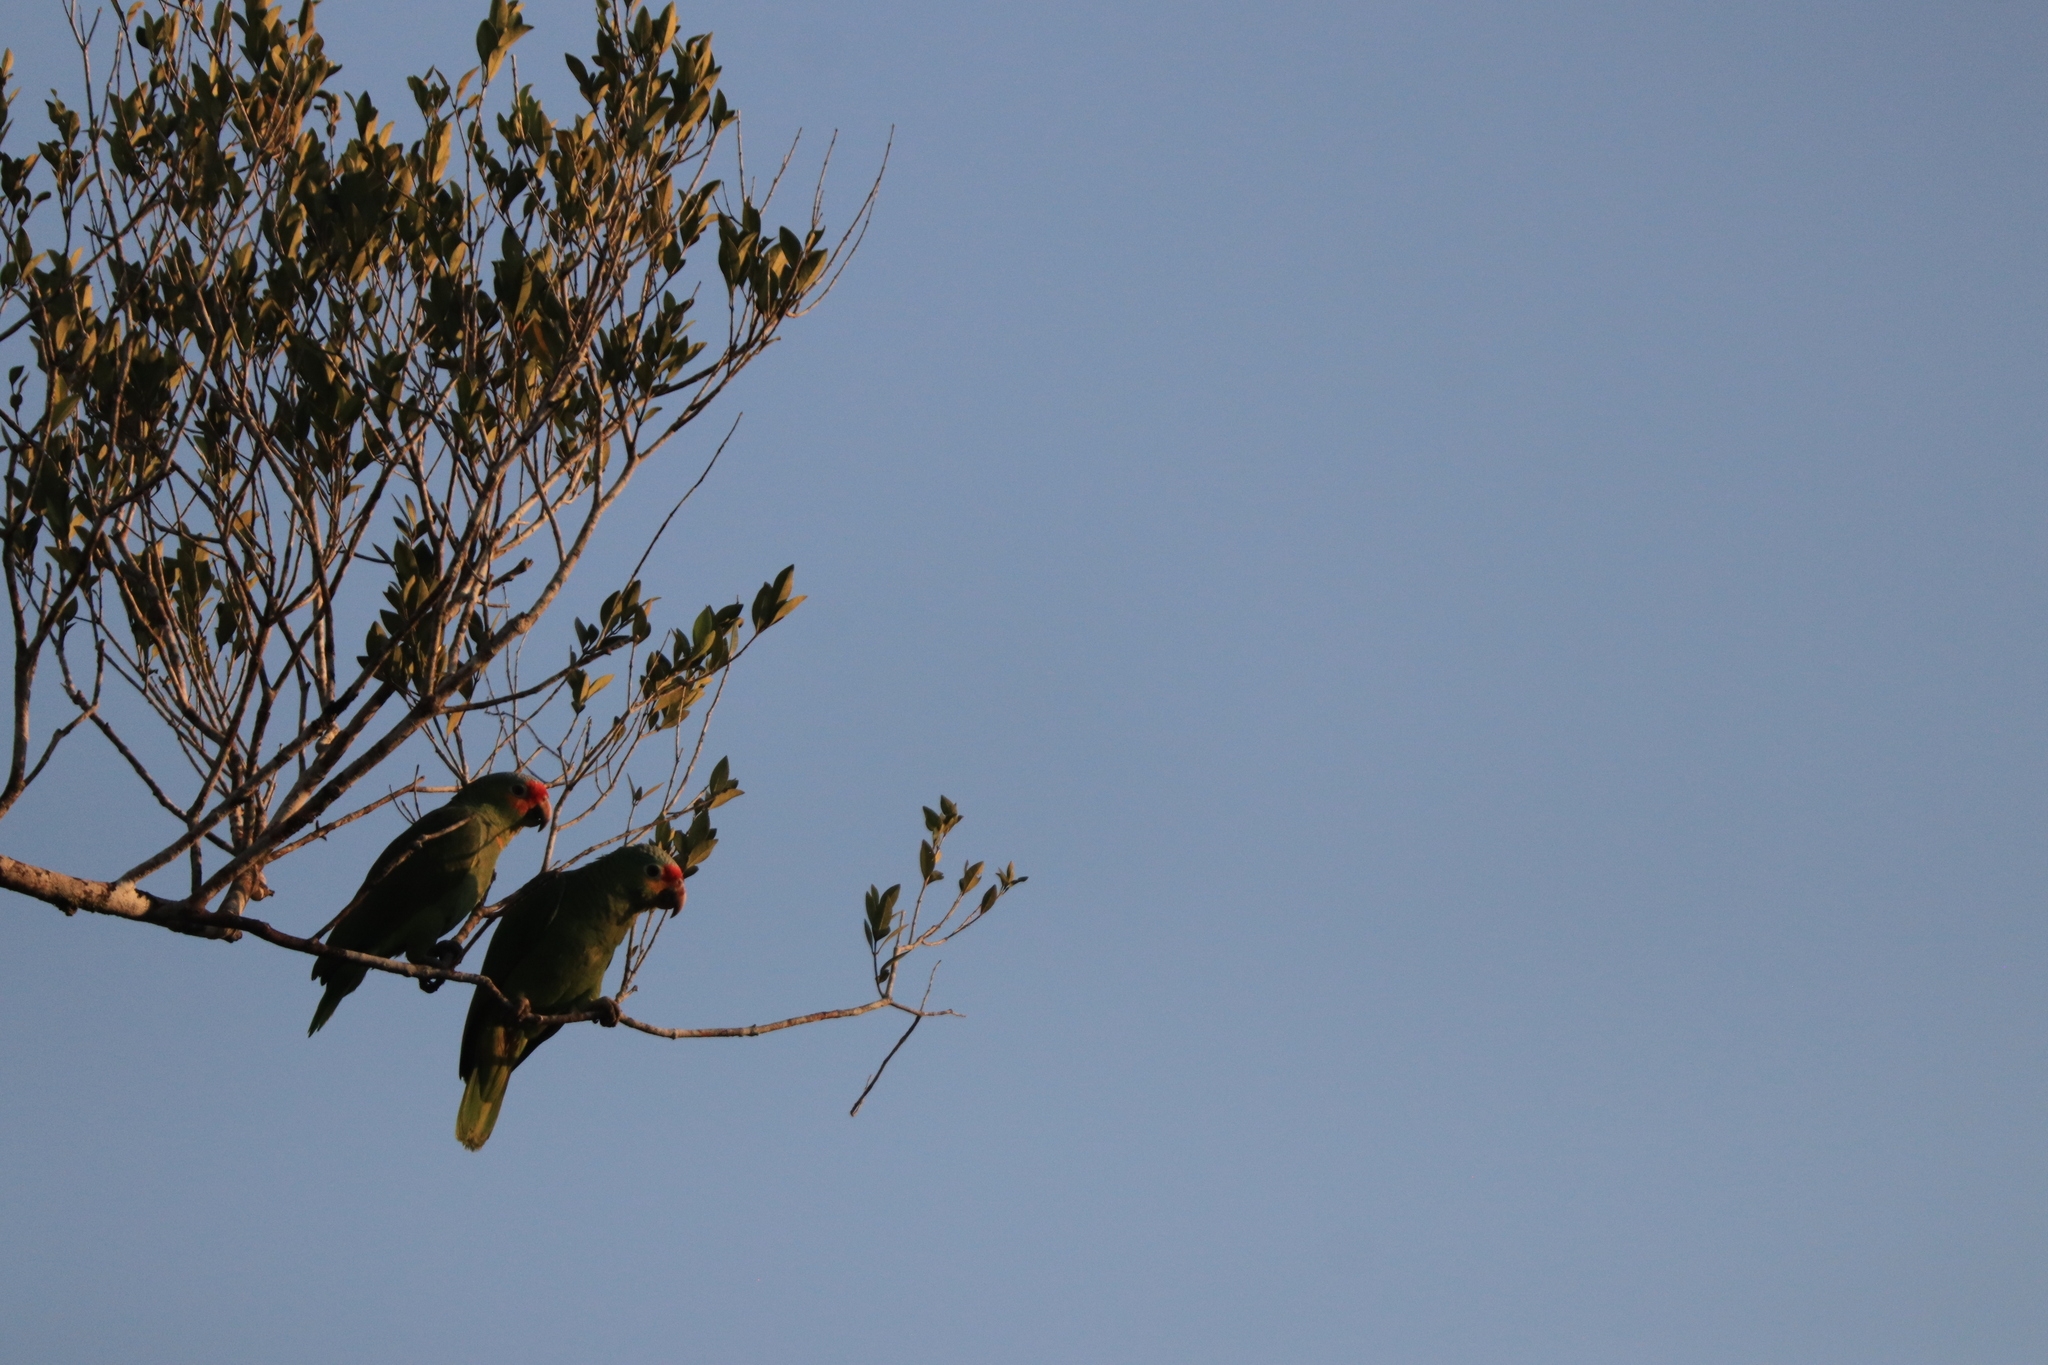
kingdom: Animalia
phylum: Chordata
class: Aves
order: Psittaciformes
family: Psittacidae
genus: Amazona
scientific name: Amazona autumnalis
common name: Red-lored amazon
